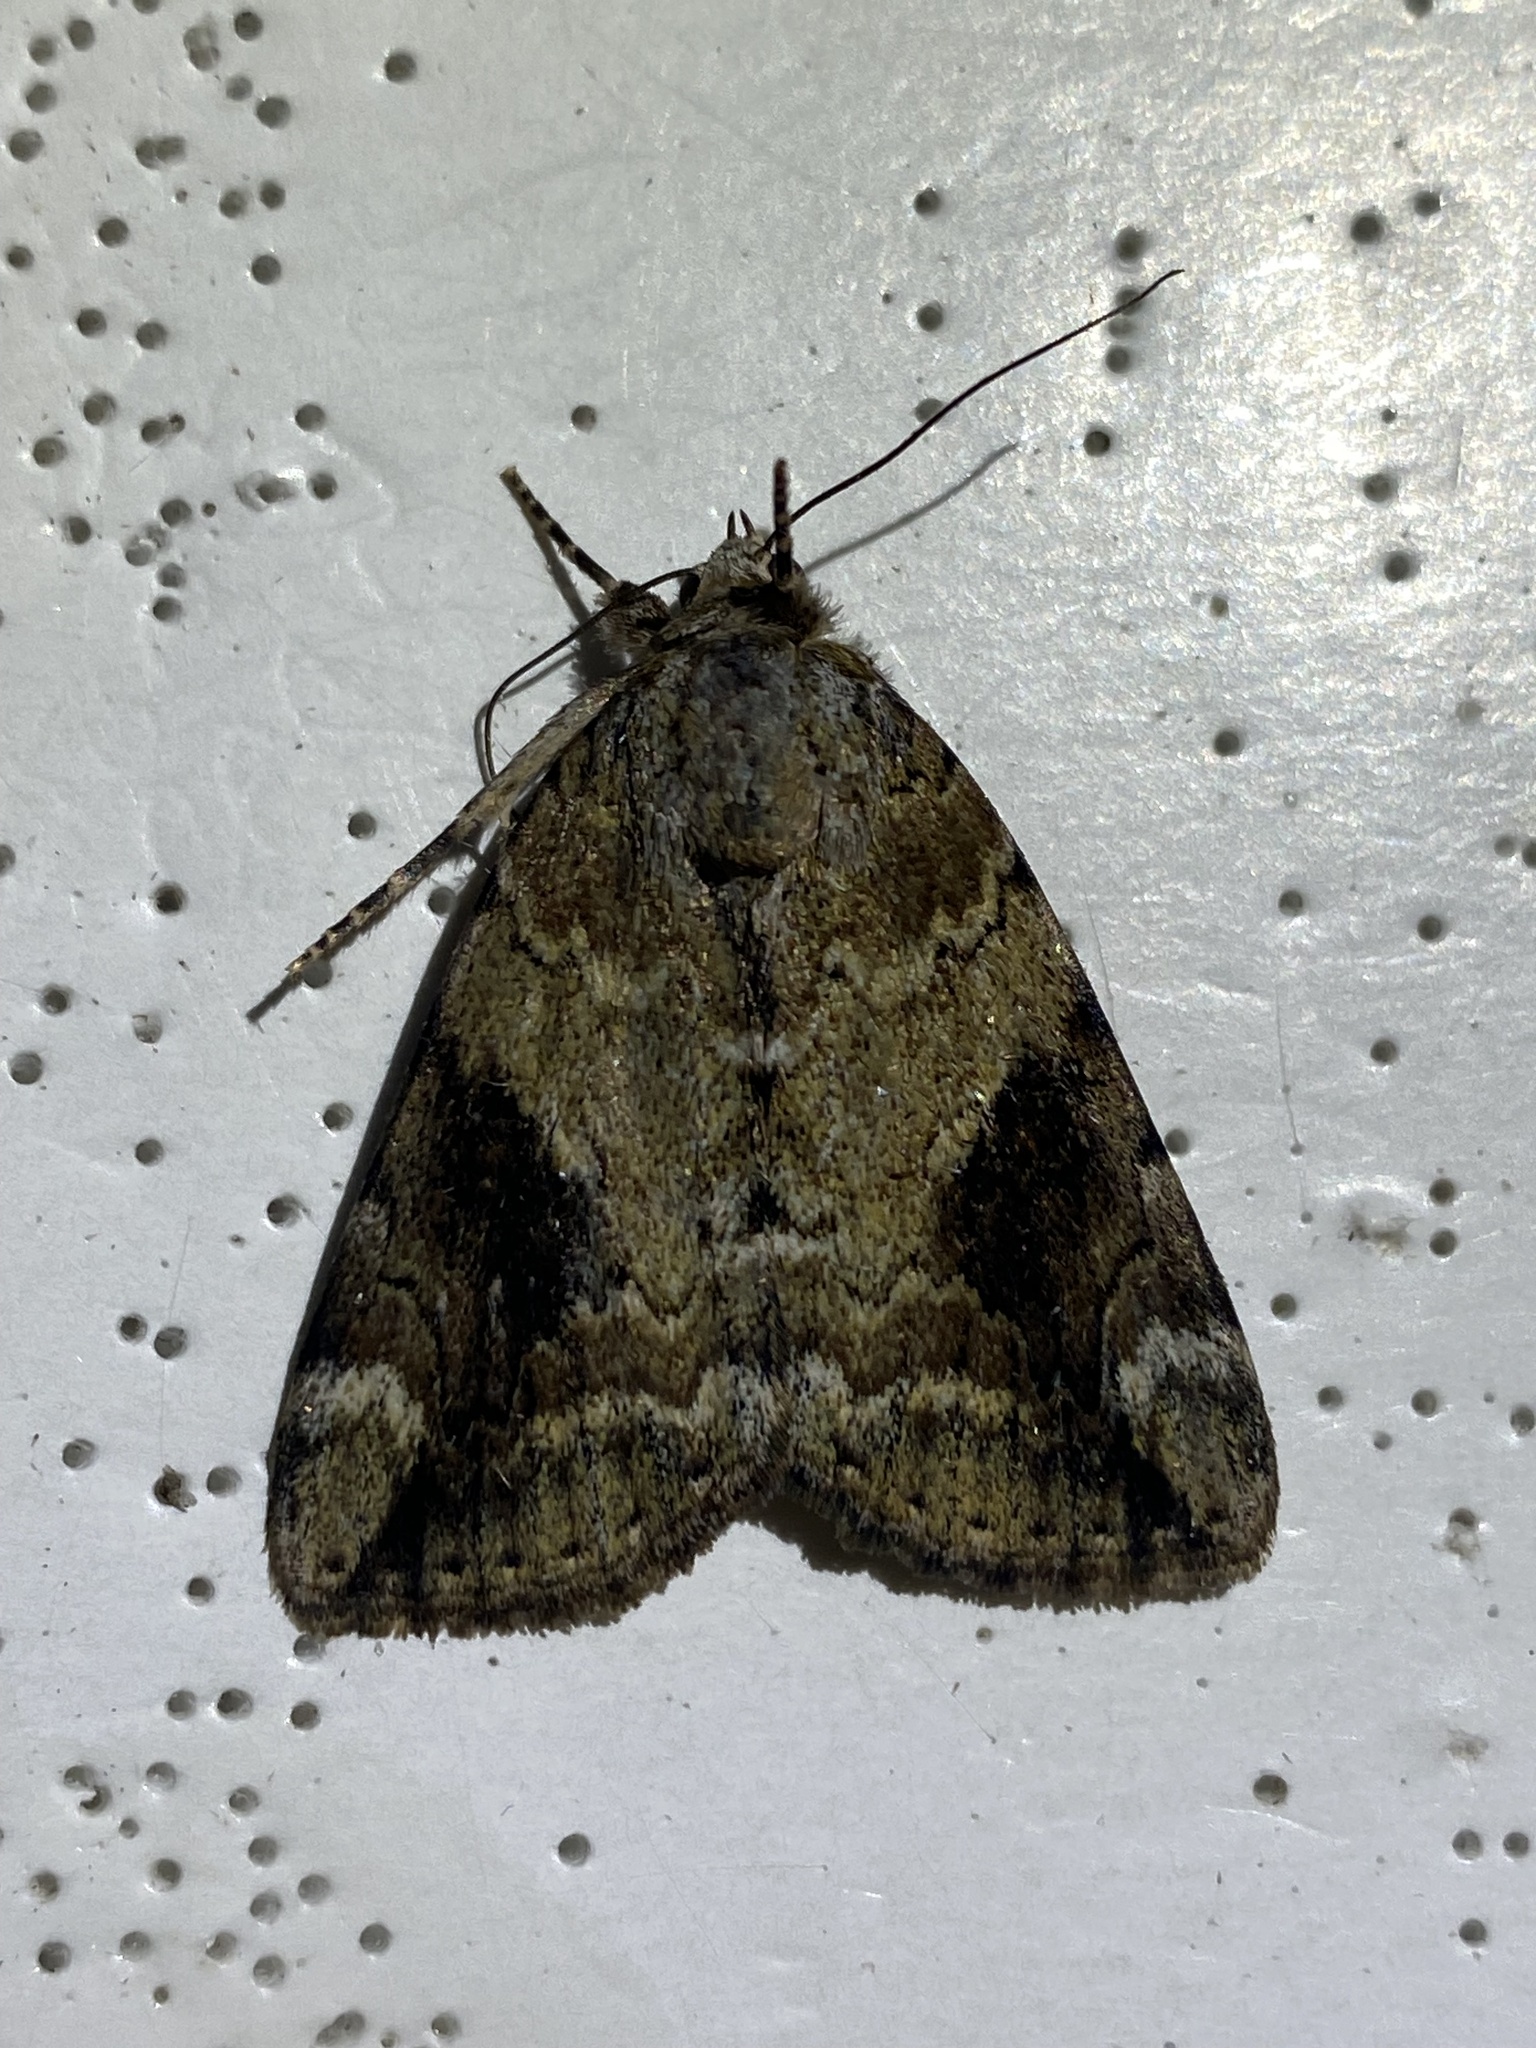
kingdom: Animalia
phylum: Arthropoda
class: Insecta
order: Lepidoptera
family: Erebidae
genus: Catocala
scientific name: Catocala micronympha
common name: Little nymph underwing
